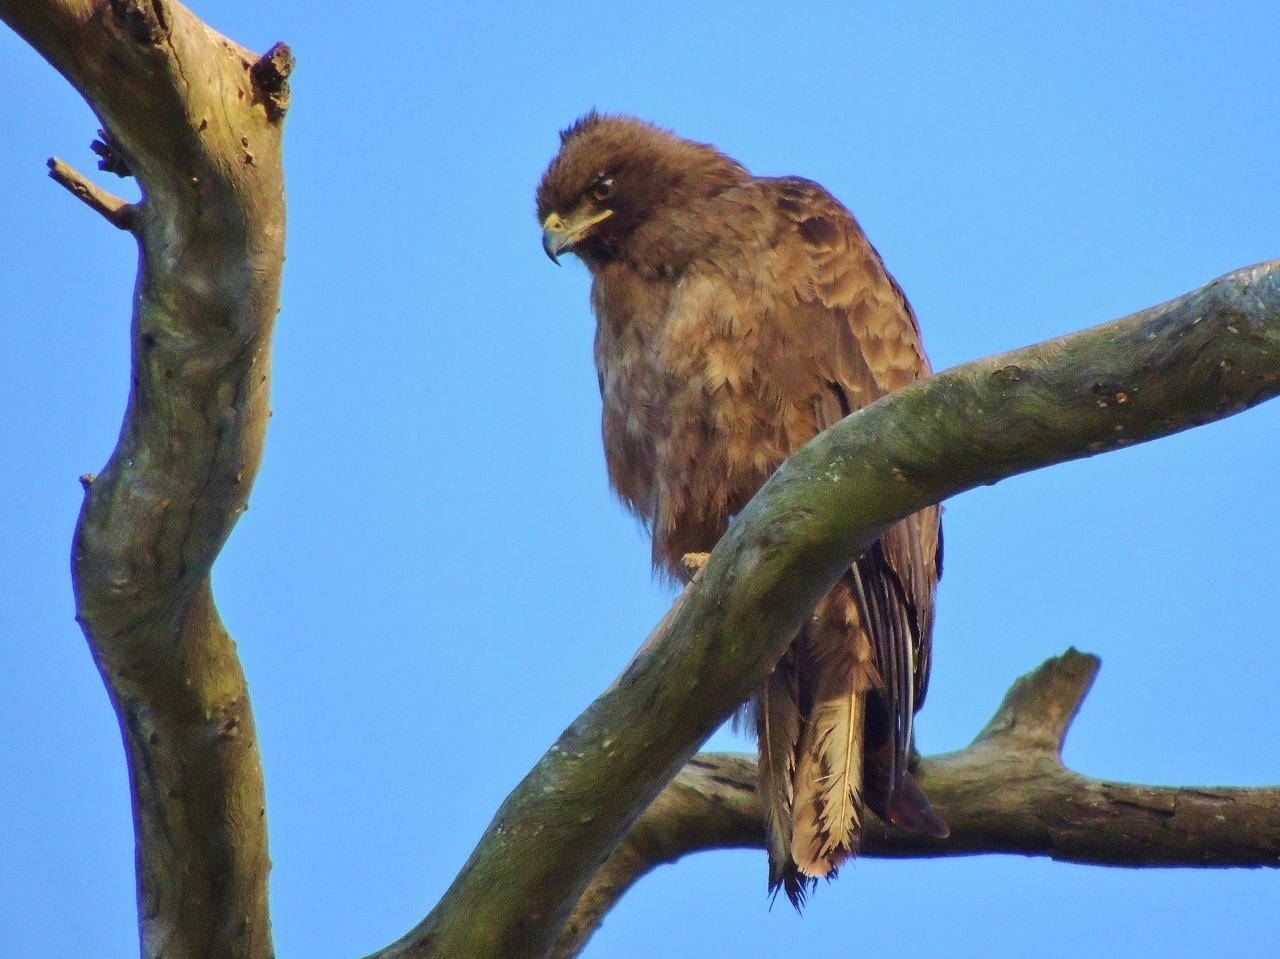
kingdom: Animalia
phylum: Chordata
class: Aves
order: Accipitriformes
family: Accipitridae
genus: Hieraaetus
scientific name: Hieraaetus wahlbergi
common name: Wahlberg's eagle
